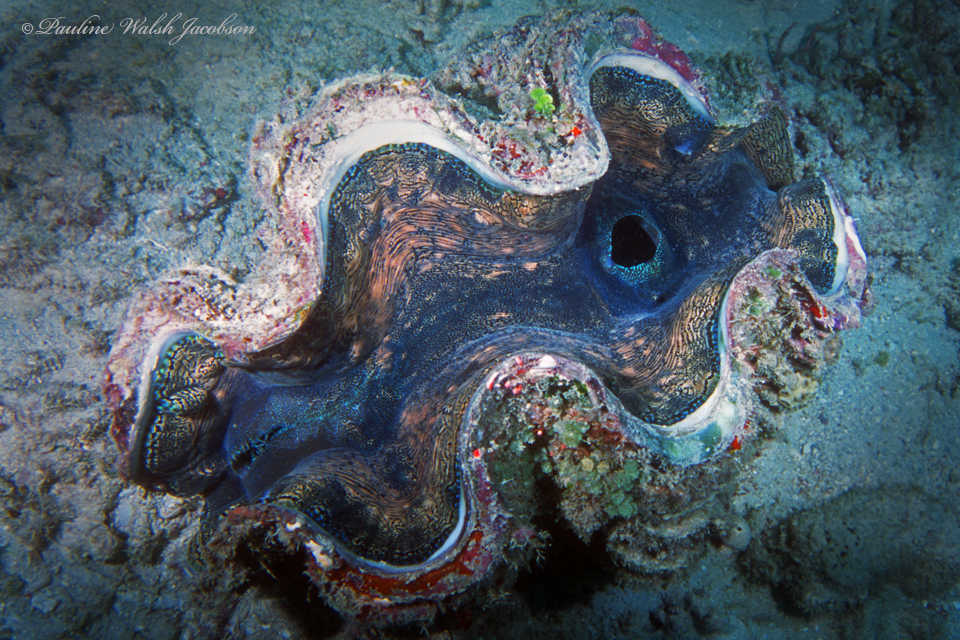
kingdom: Animalia
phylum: Mollusca
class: Bivalvia
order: Cardiida
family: Cardiidae
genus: Tridacna
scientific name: Tridacna squamosa
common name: Fluted clam
